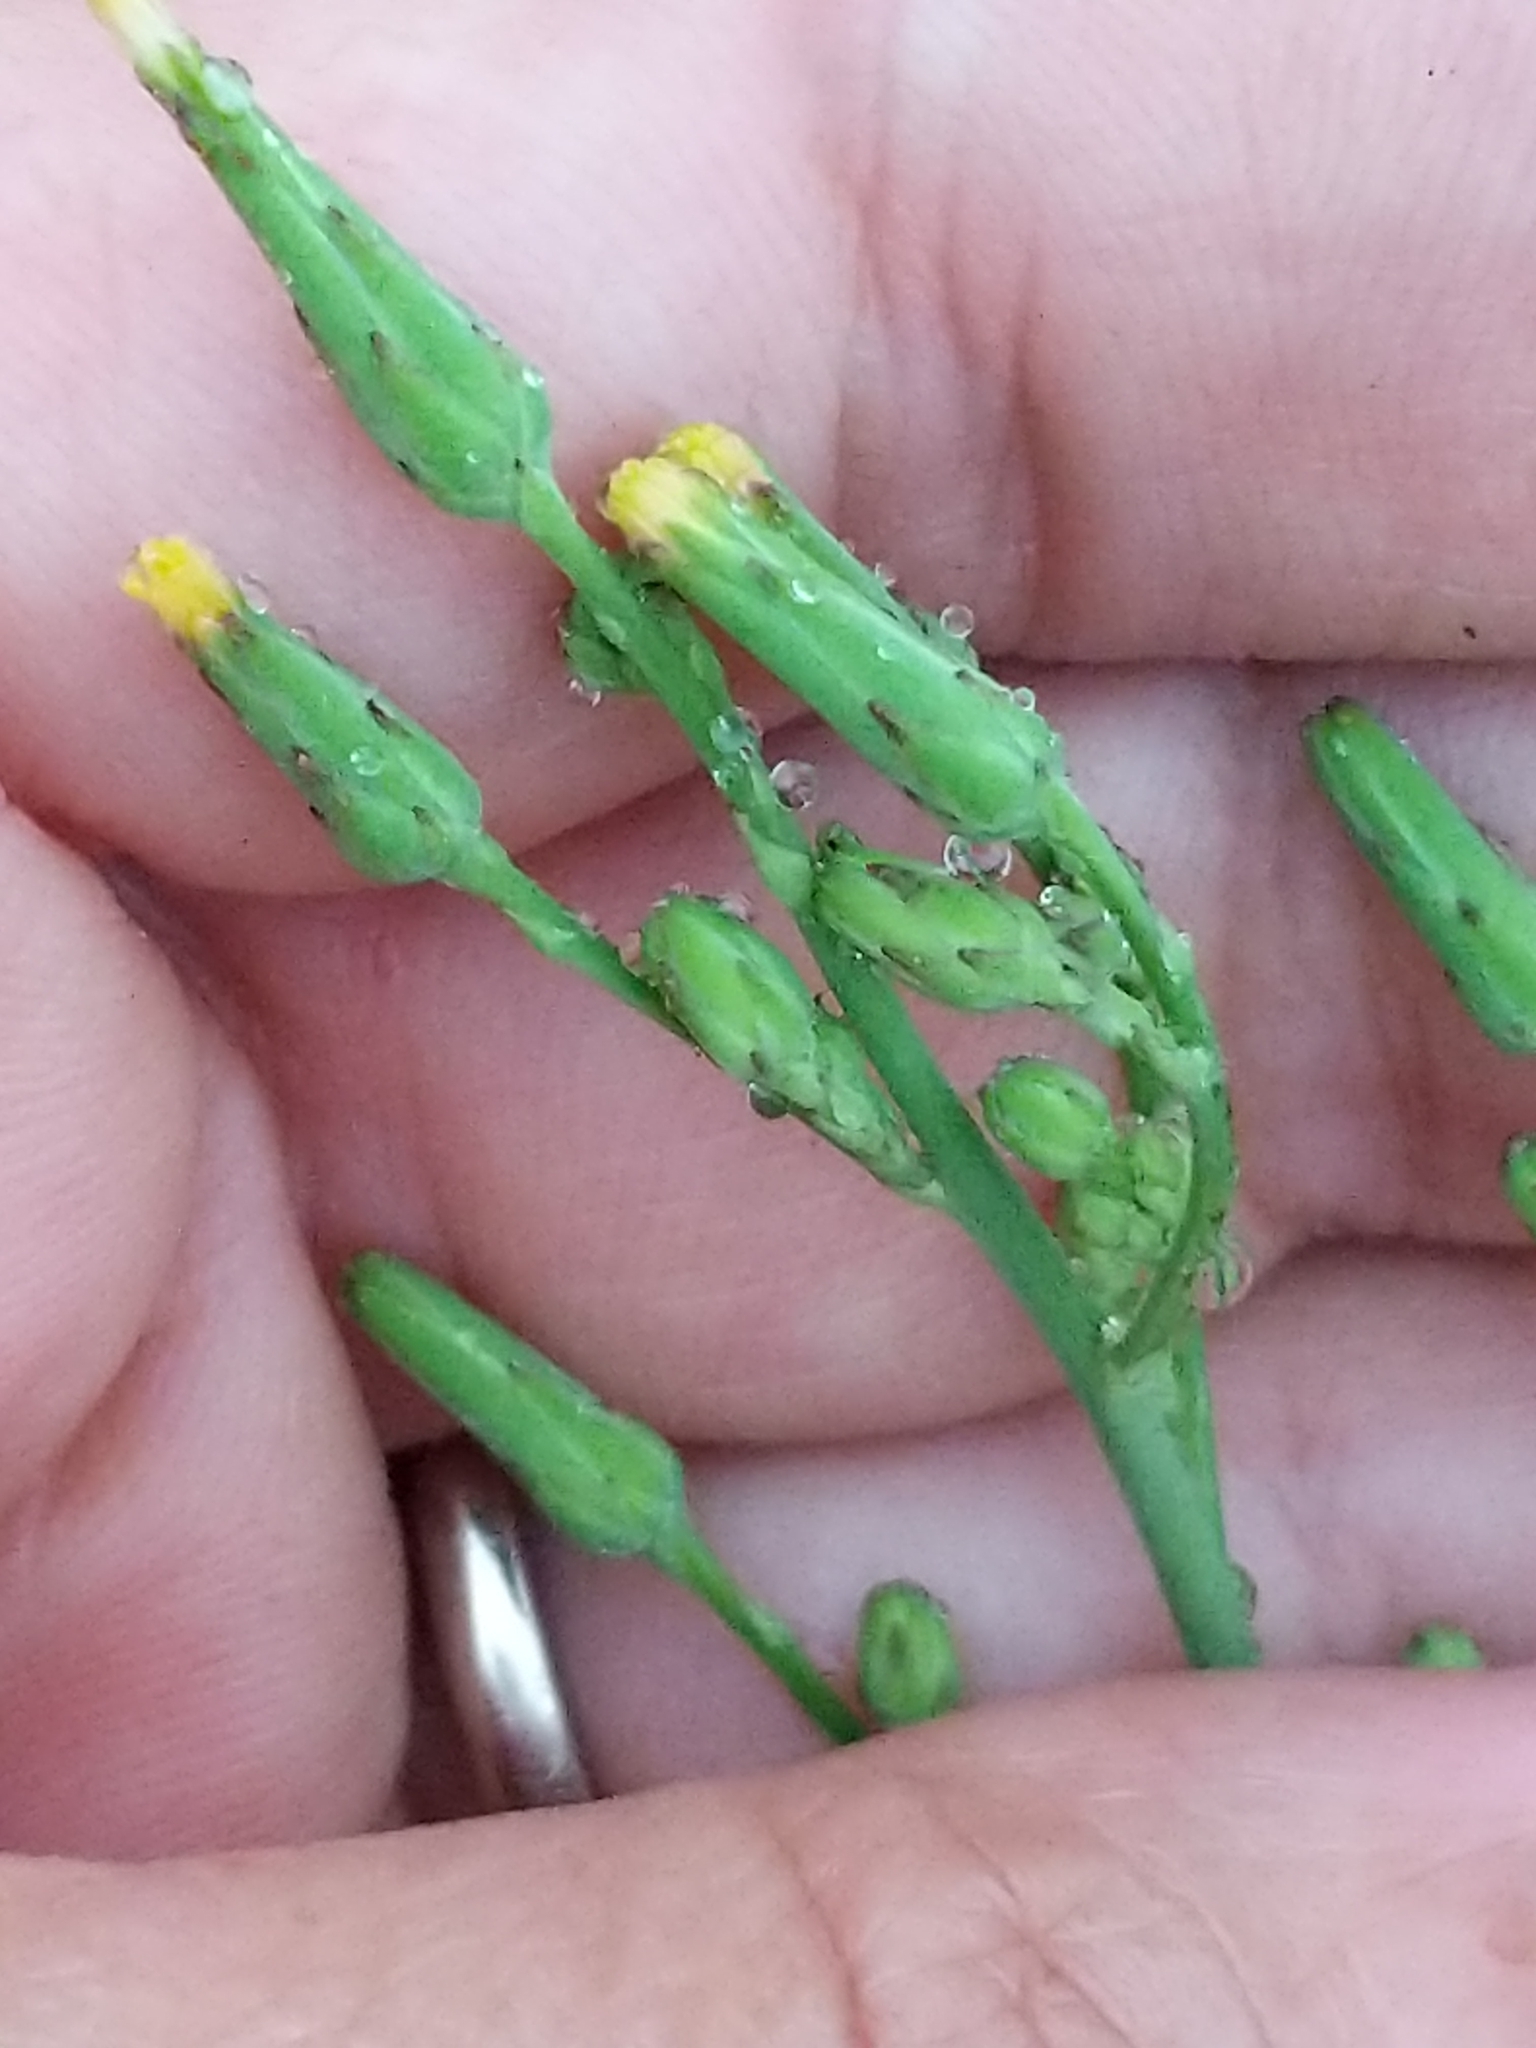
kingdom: Plantae
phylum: Tracheophyta
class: Magnoliopsida
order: Asterales
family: Asteraceae
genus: Lactuca
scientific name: Lactuca canadensis
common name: Canada lettuce
